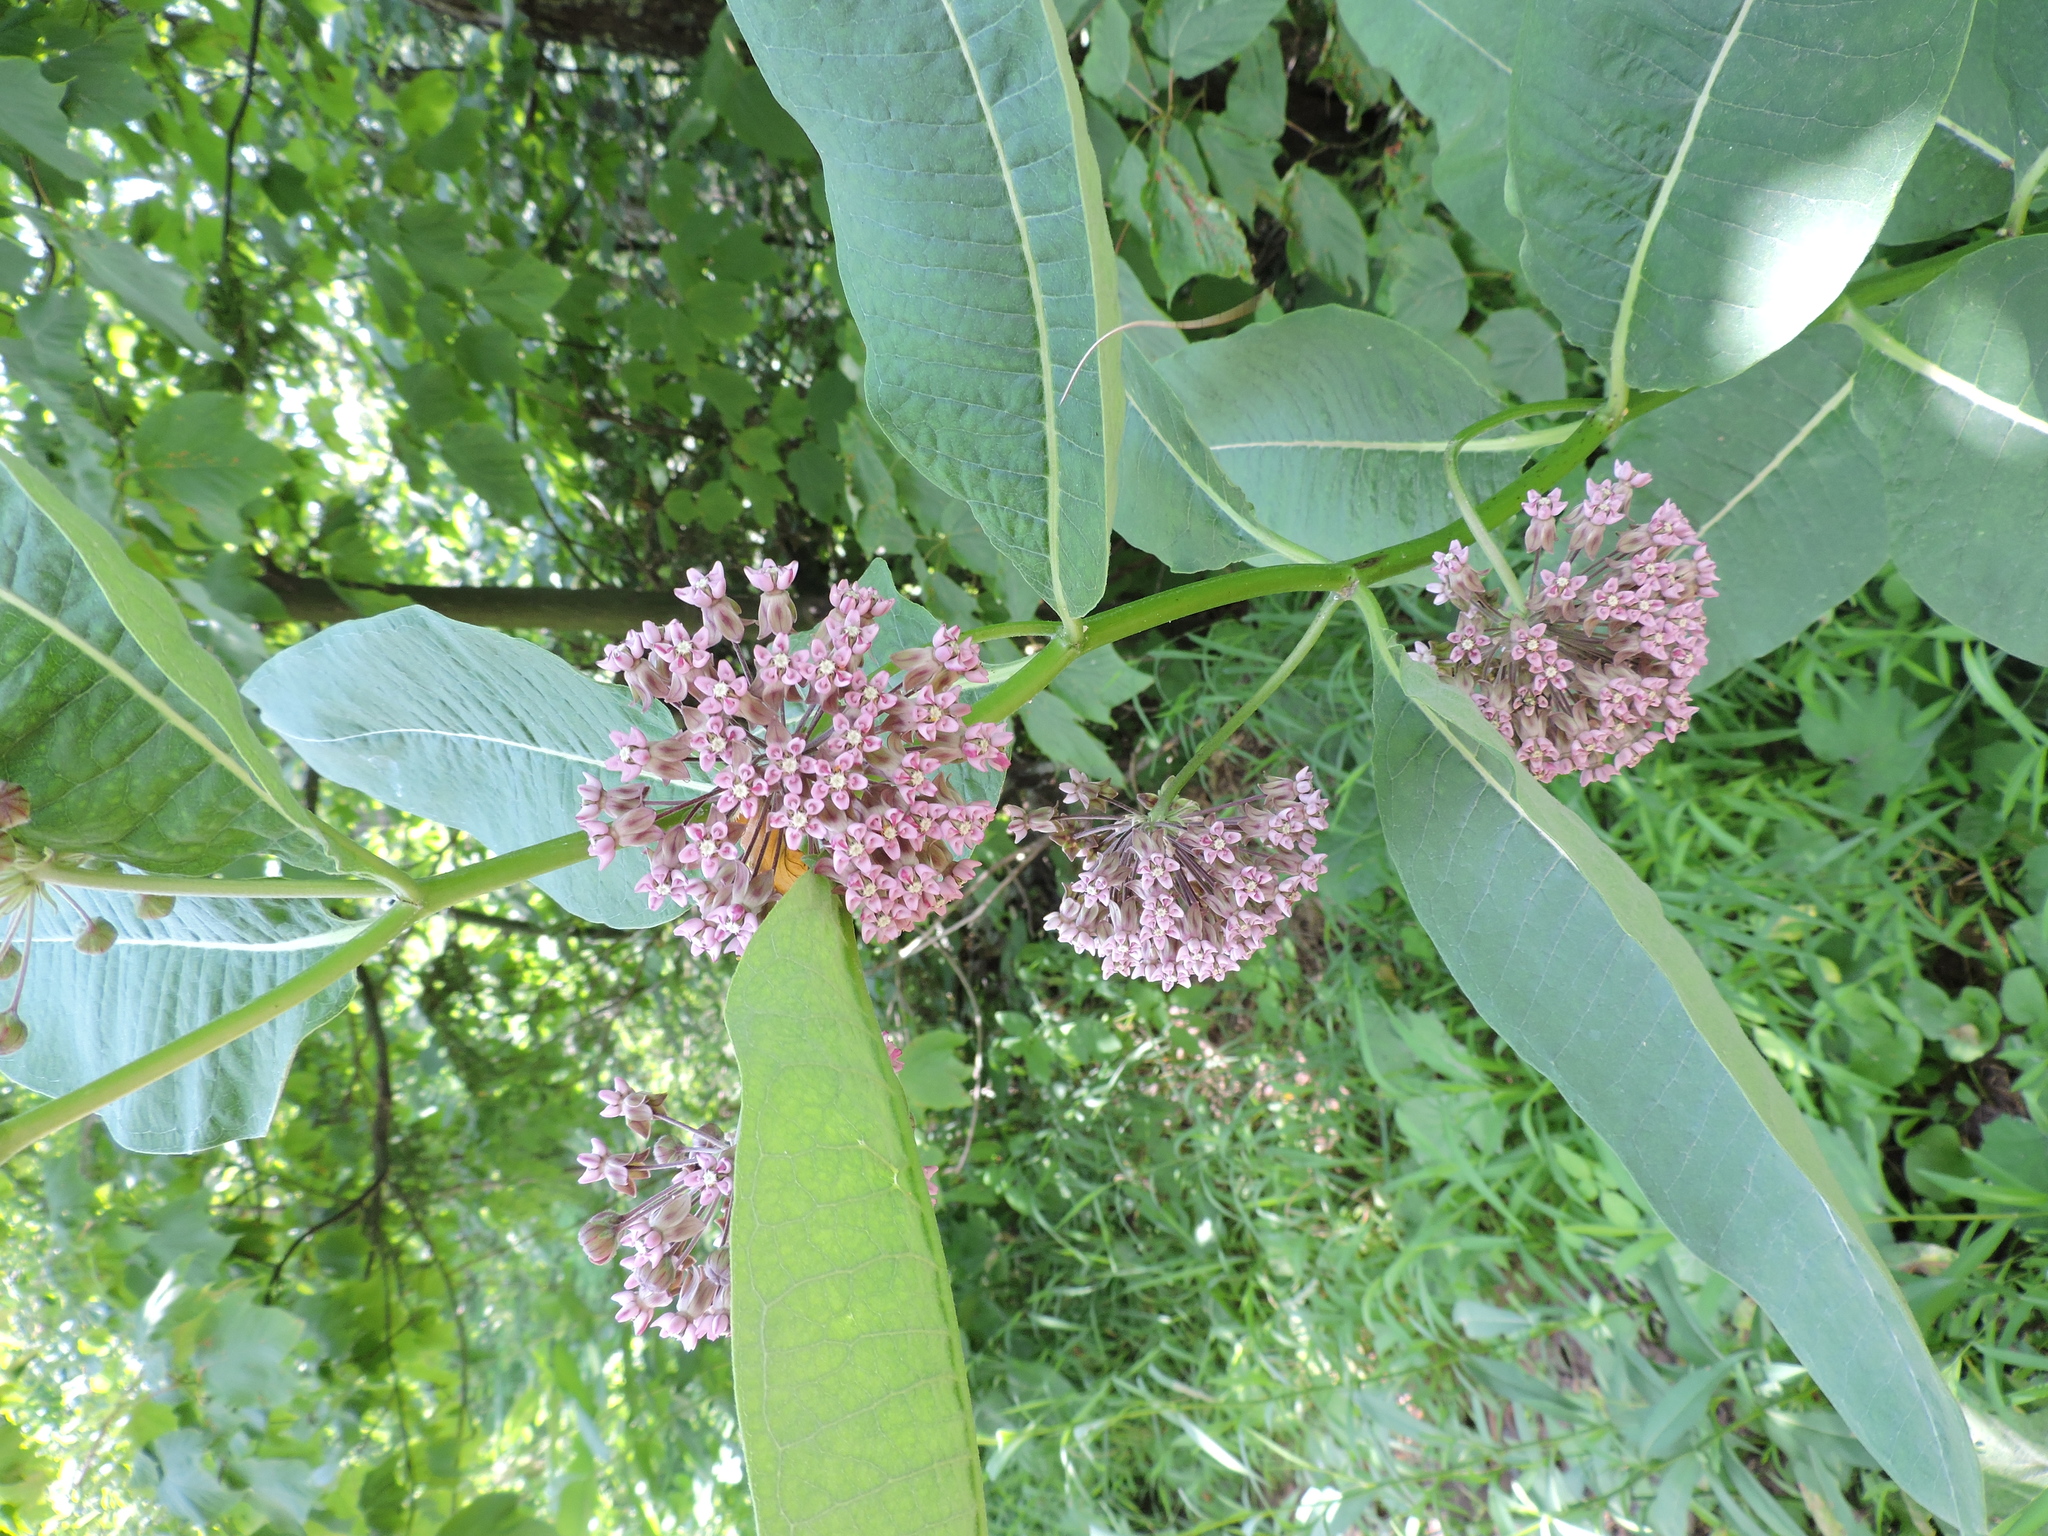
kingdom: Plantae
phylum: Tracheophyta
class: Magnoliopsida
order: Gentianales
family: Apocynaceae
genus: Asclepias
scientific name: Asclepias syriaca
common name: Common milkweed
